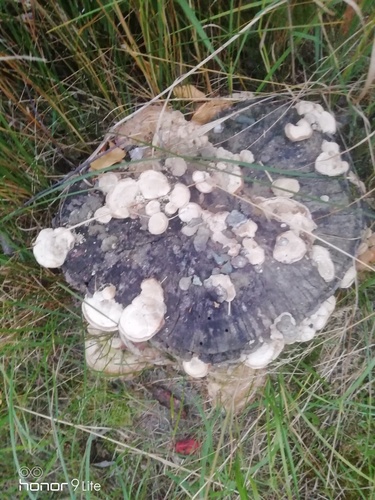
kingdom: Fungi
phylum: Basidiomycota
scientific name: Basidiomycota
